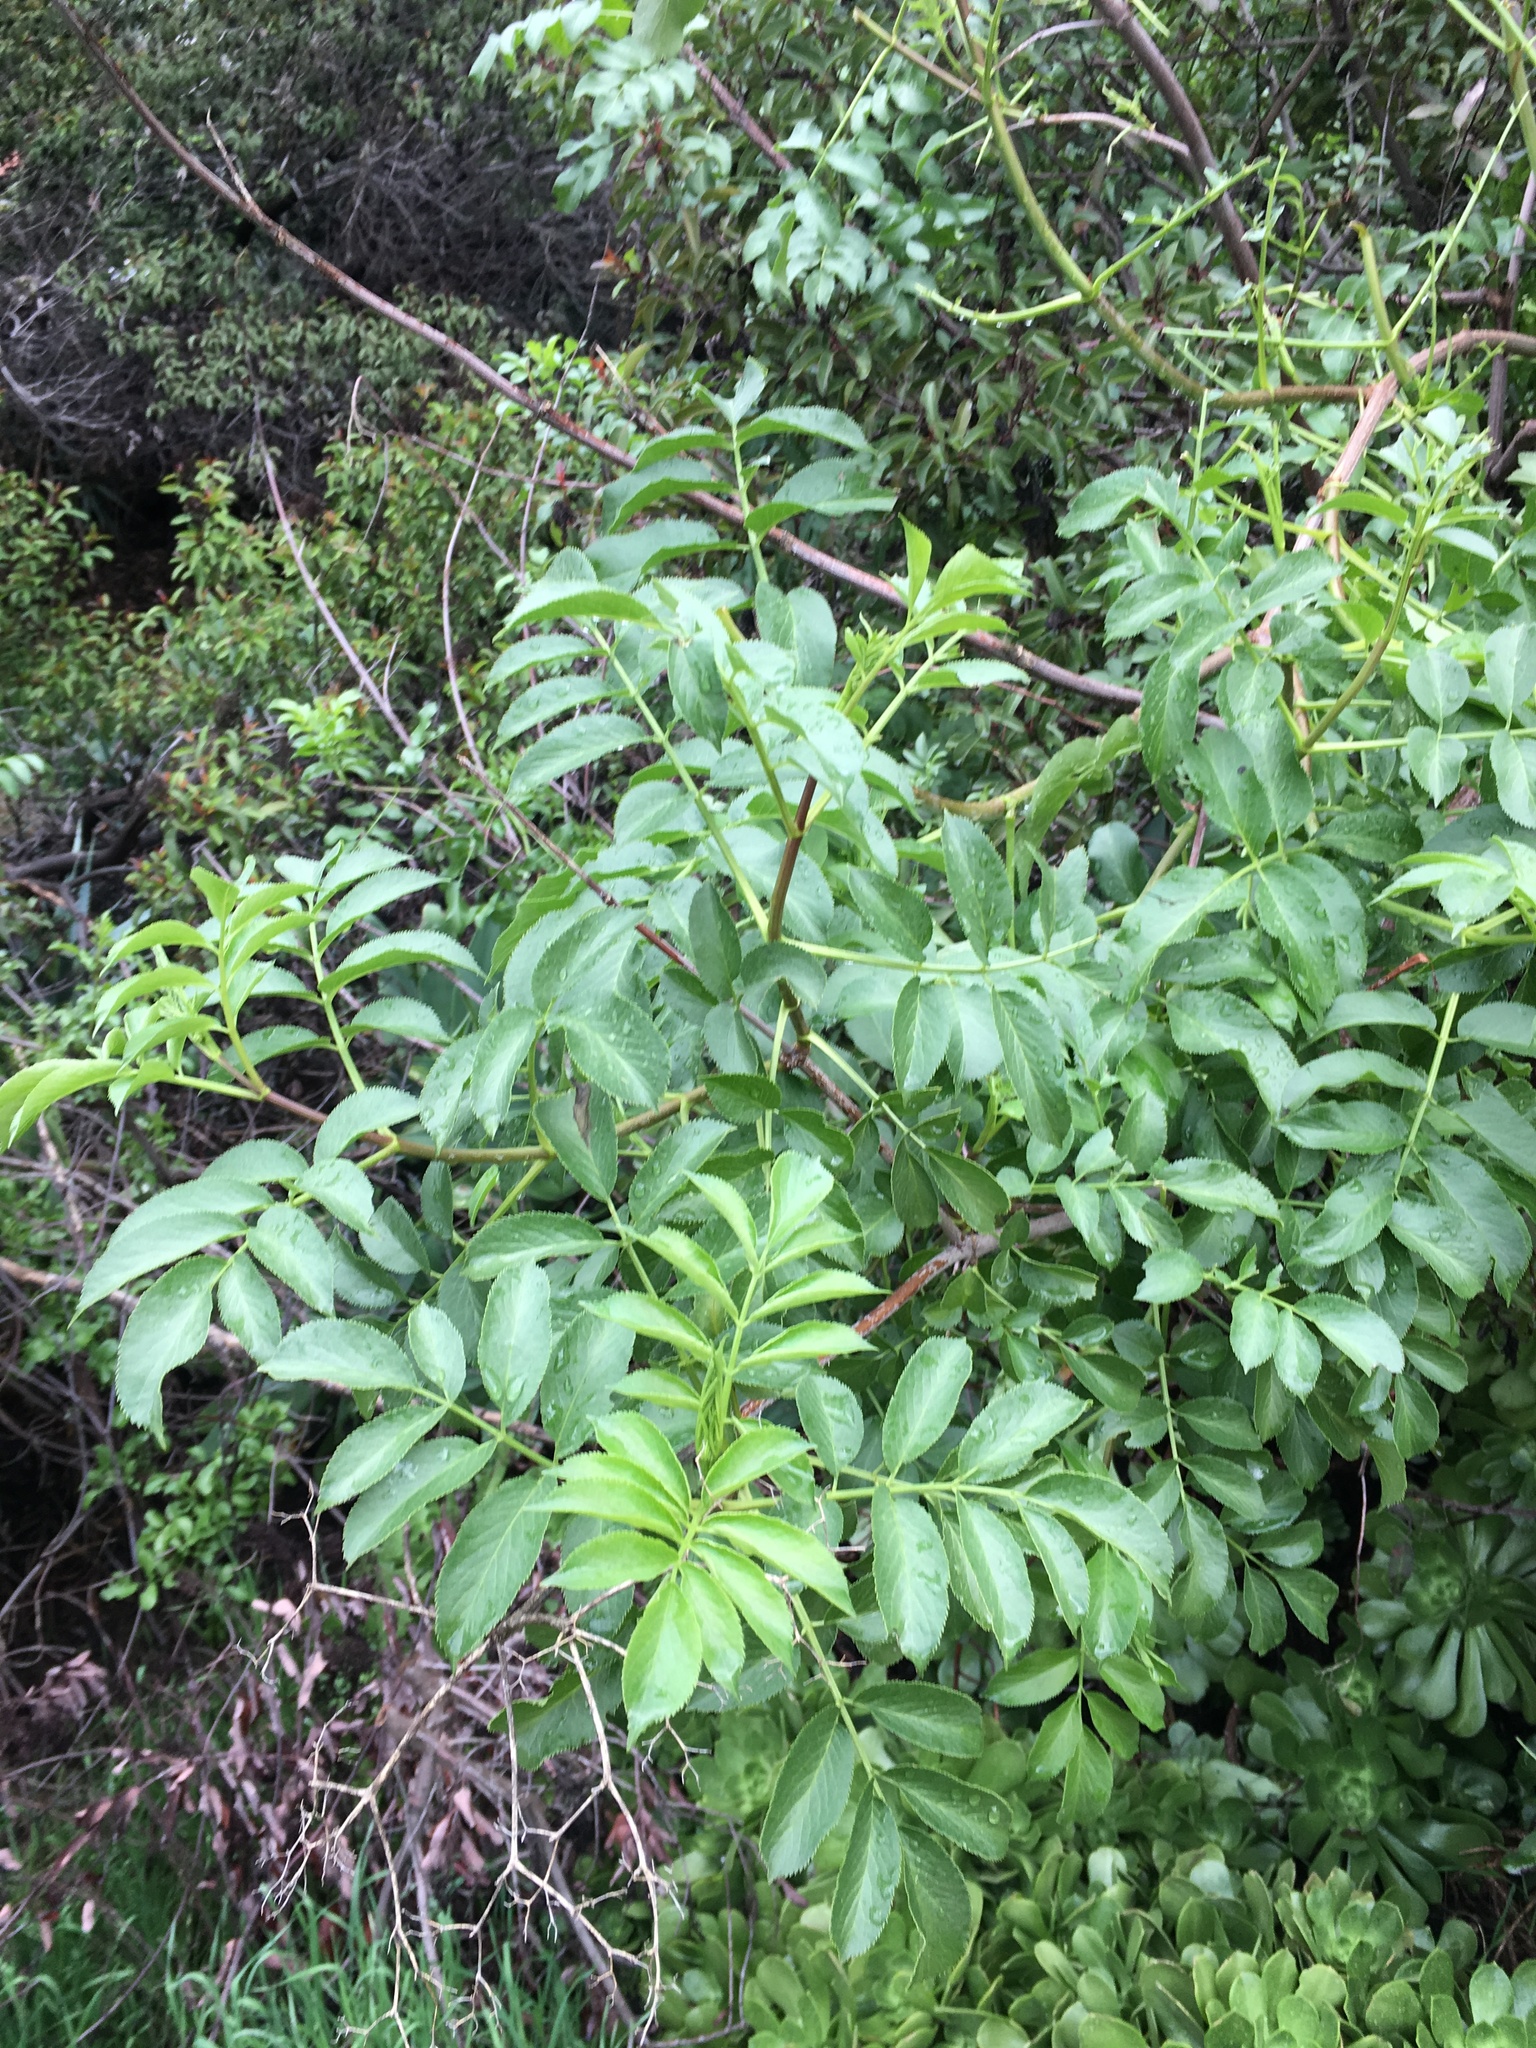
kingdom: Plantae
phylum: Tracheophyta
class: Magnoliopsida
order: Dipsacales
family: Viburnaceae
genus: Sambucus
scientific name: Sambucus cerulea
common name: Blue elder
